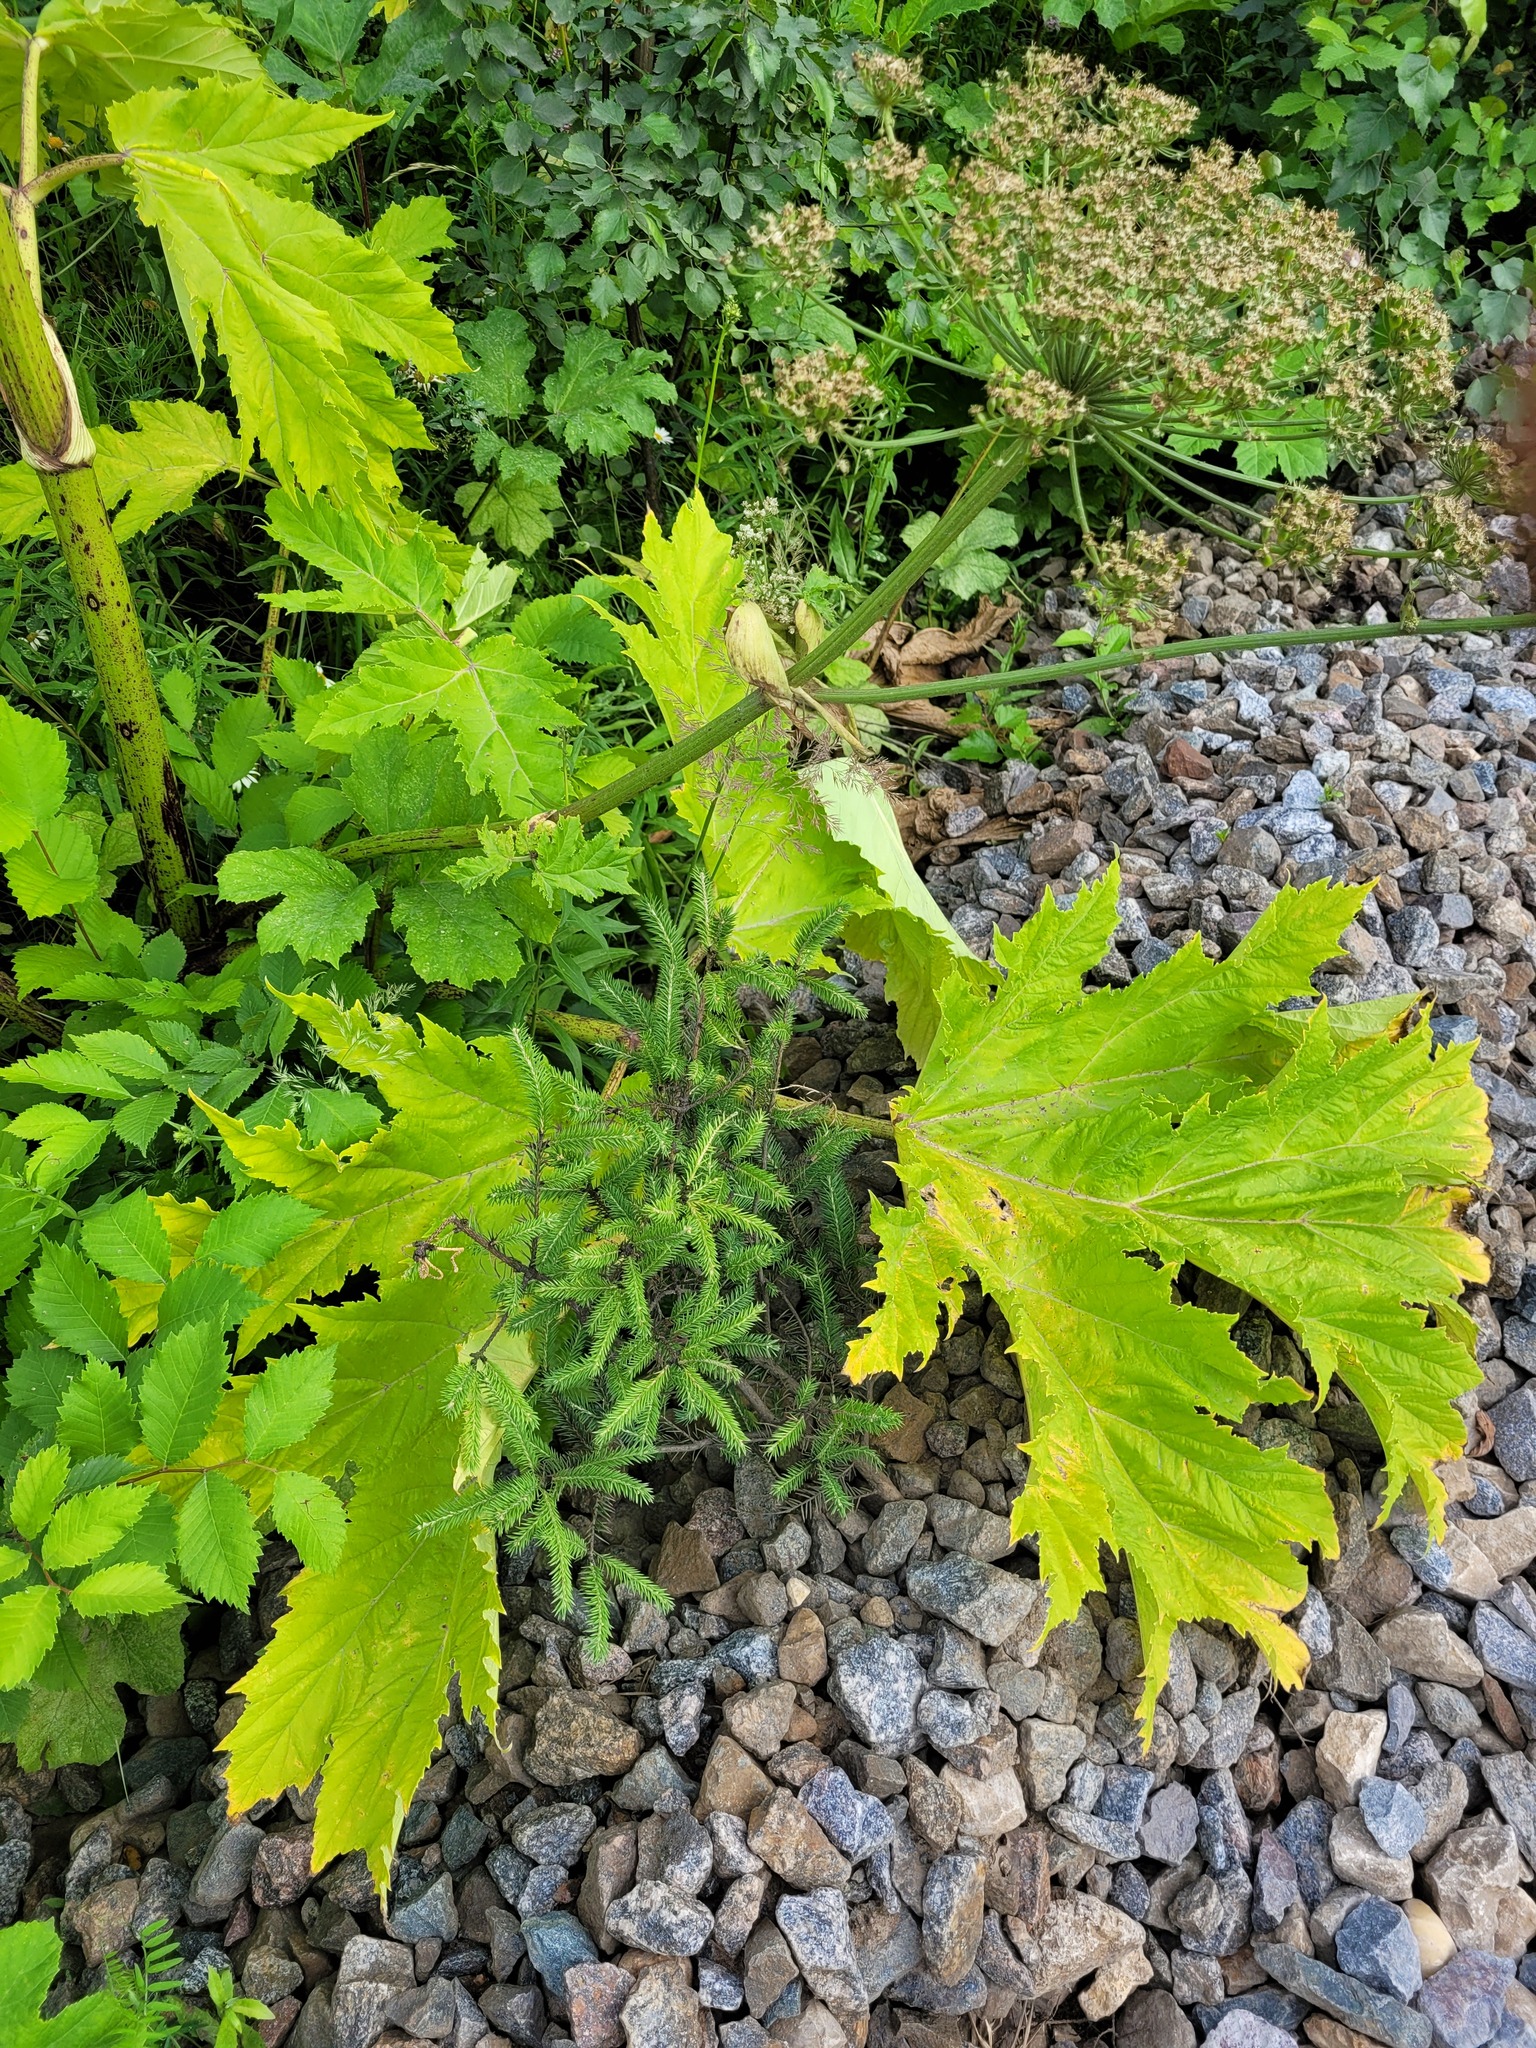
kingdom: Plantae
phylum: Tracheophyta
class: Pinopsida
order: Pinales
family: Pinaceae
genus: Picea
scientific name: Picea abies
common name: Norway spruce
